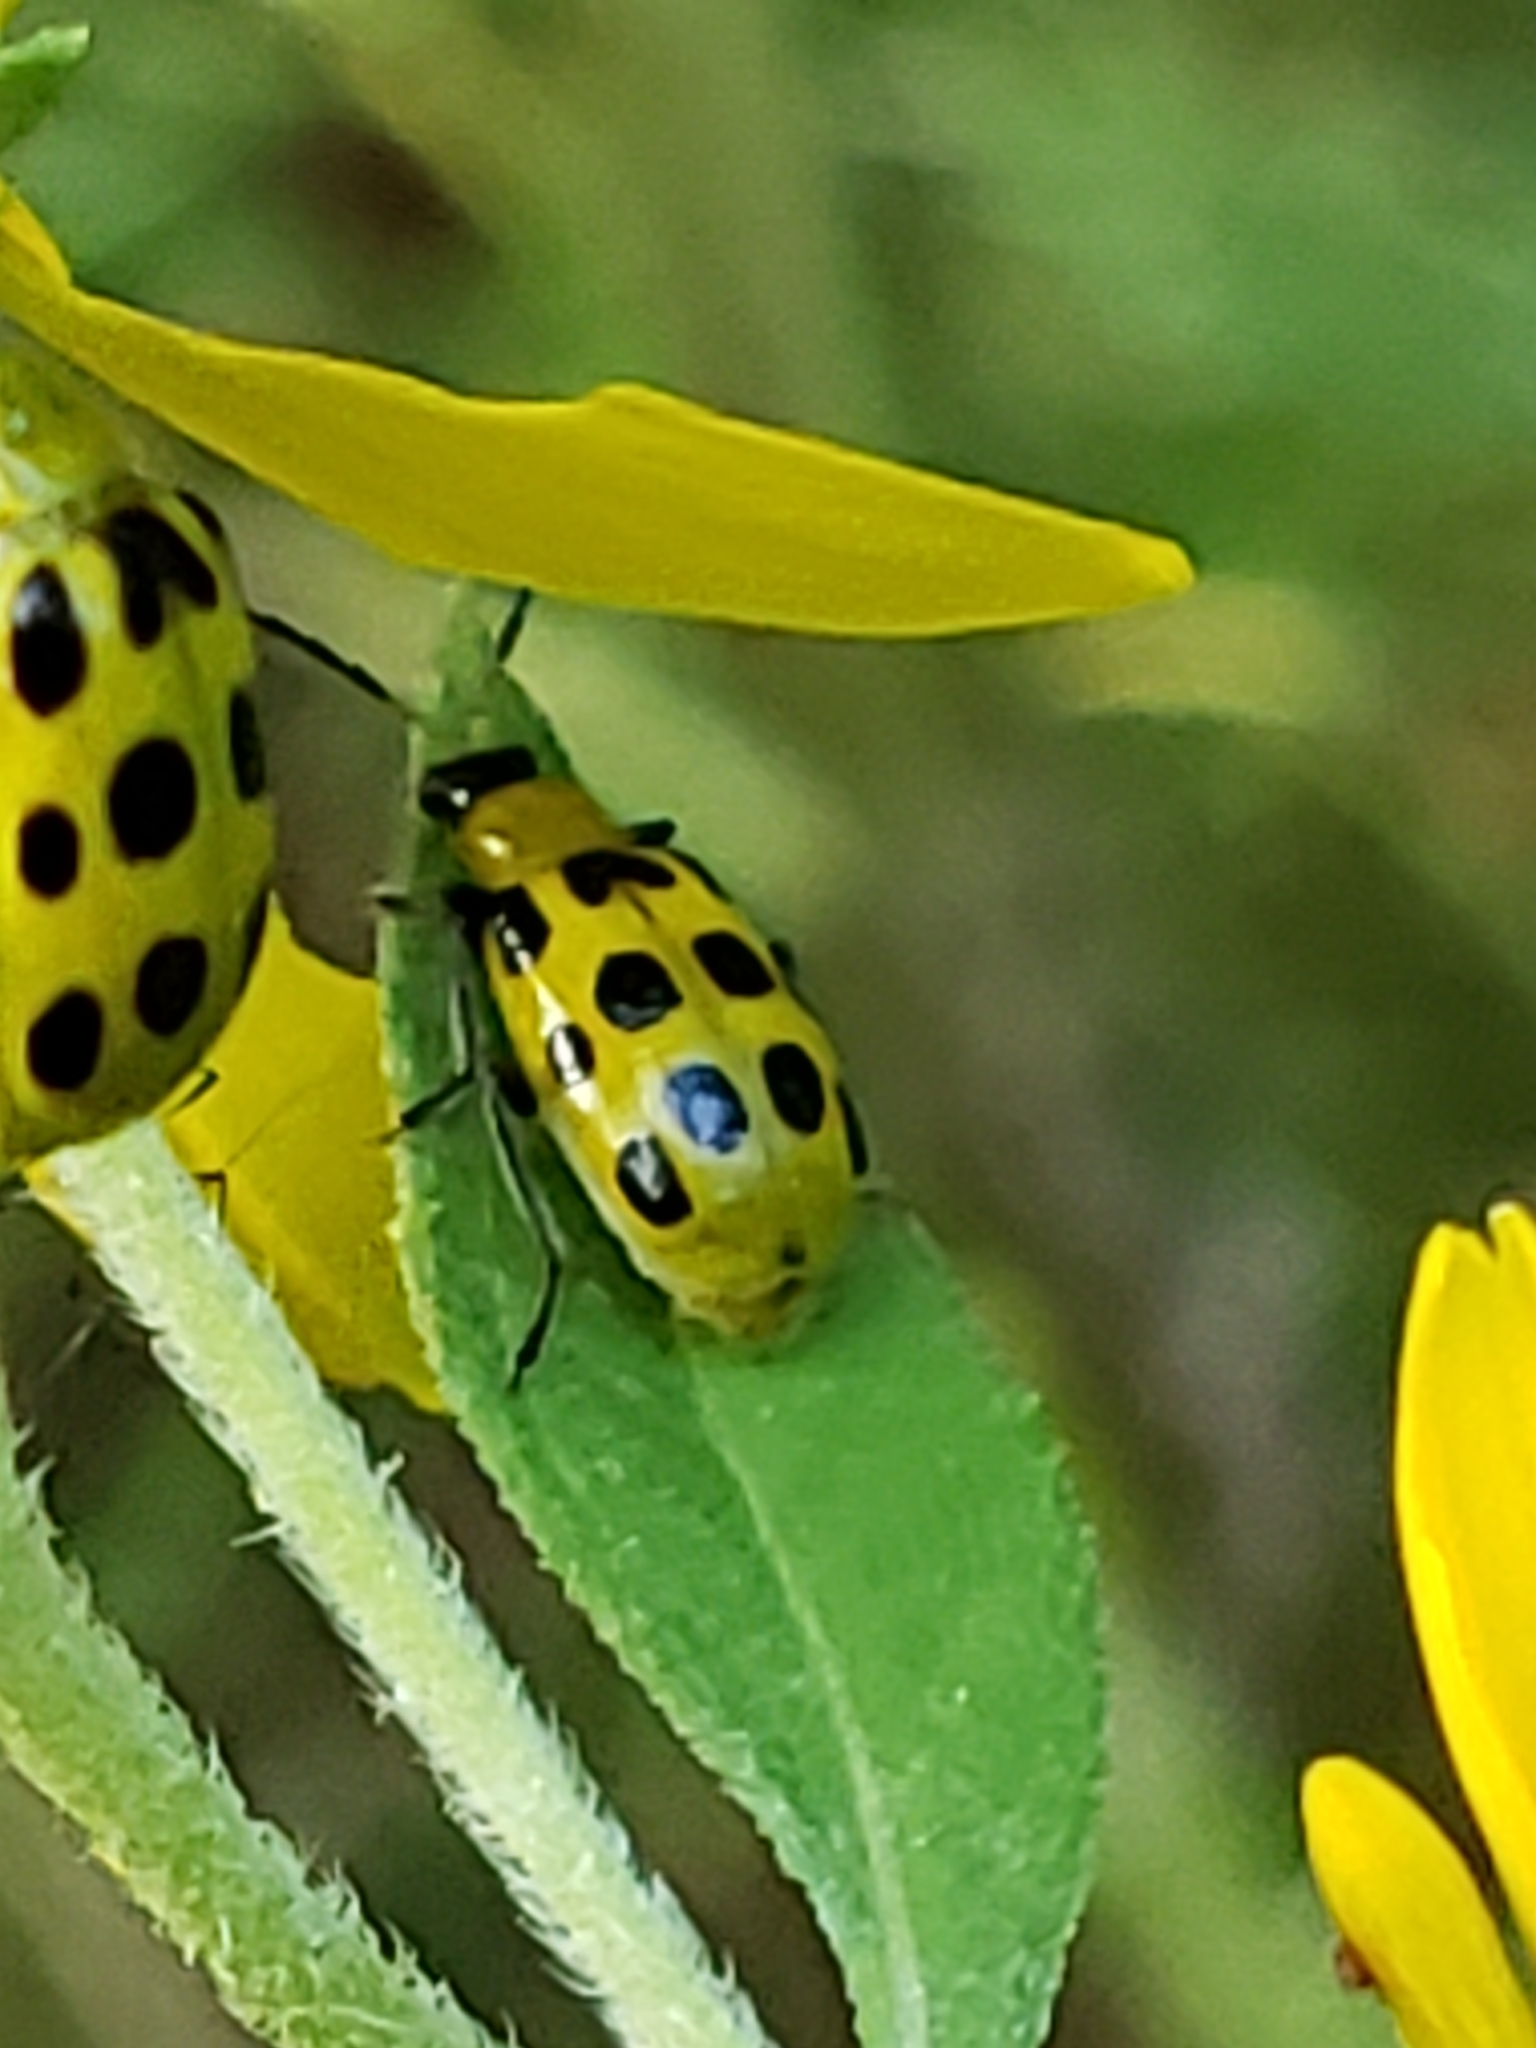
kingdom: Animalia
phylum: Arthropoda
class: Insecta
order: Coleoptera
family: Chrysomelidae
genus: Diabrotica
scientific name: Diabrotica undecimpunctata
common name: Spotted cucumber beetle
